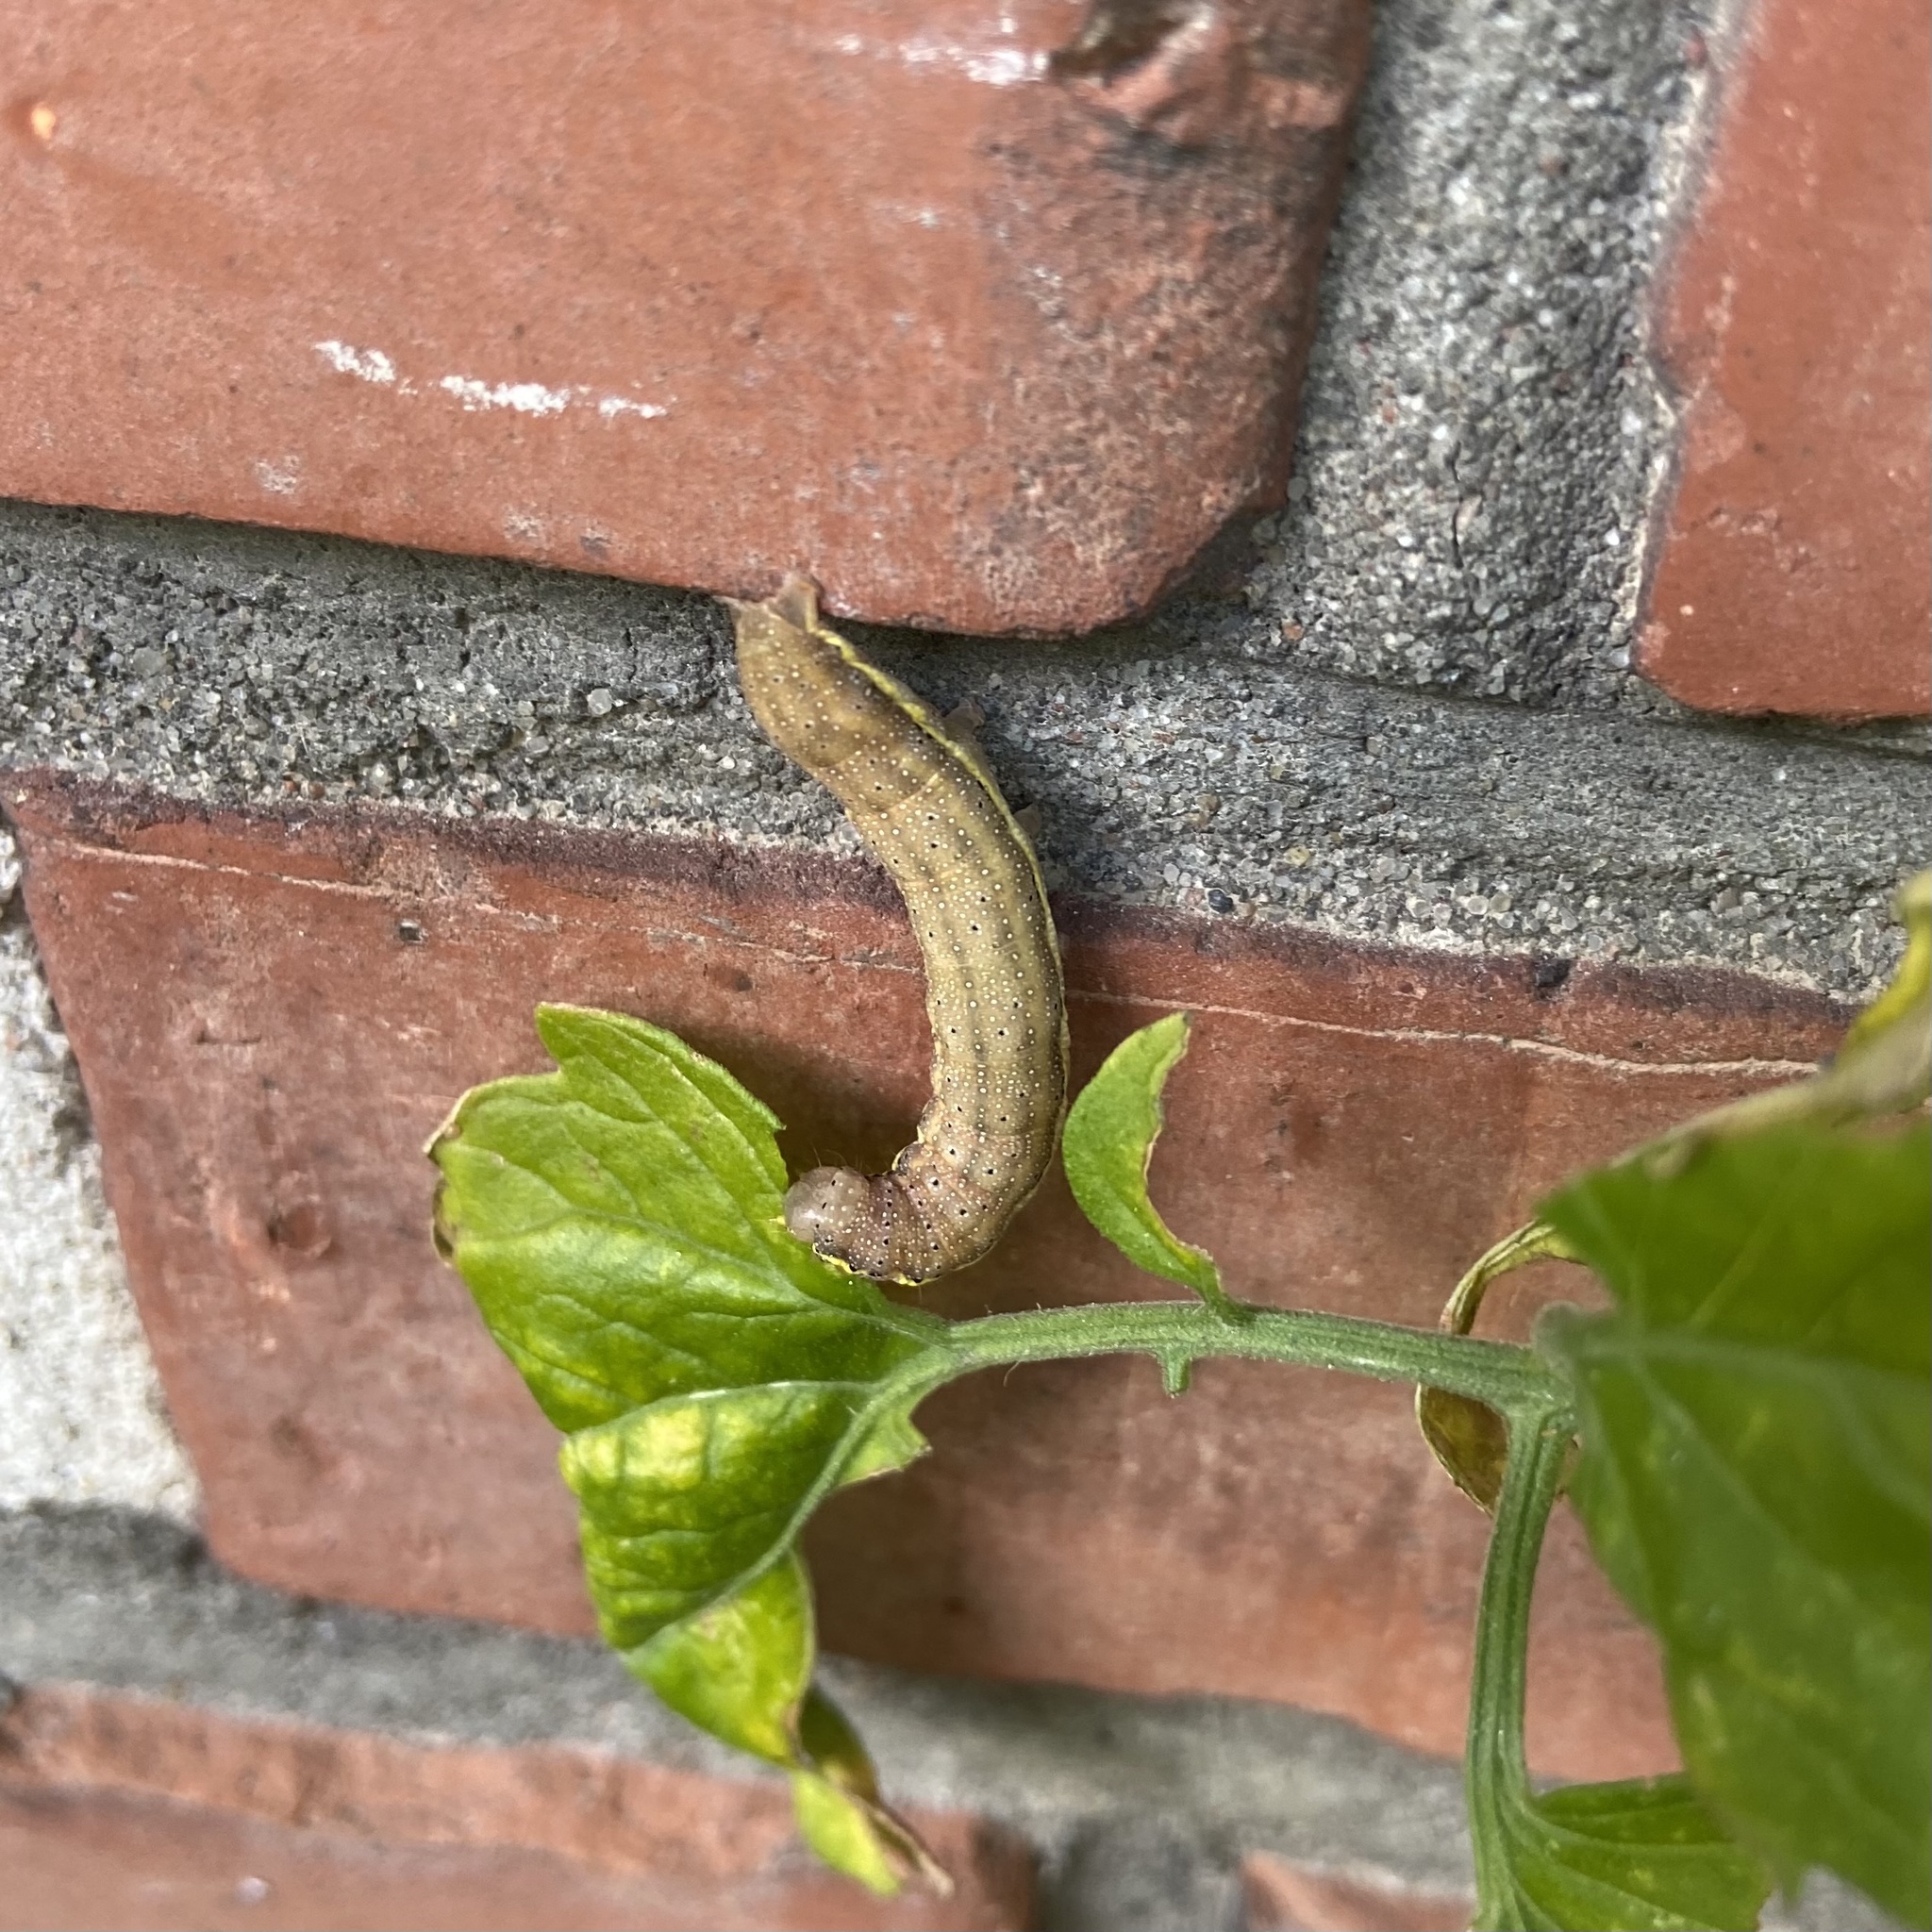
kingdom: Animalia
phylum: Arthropoda
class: Insecta
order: Lepidoptera
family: Noctuidae
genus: Lacanobia
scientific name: Lacanobia oleracea
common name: Bright-line brown-eye
